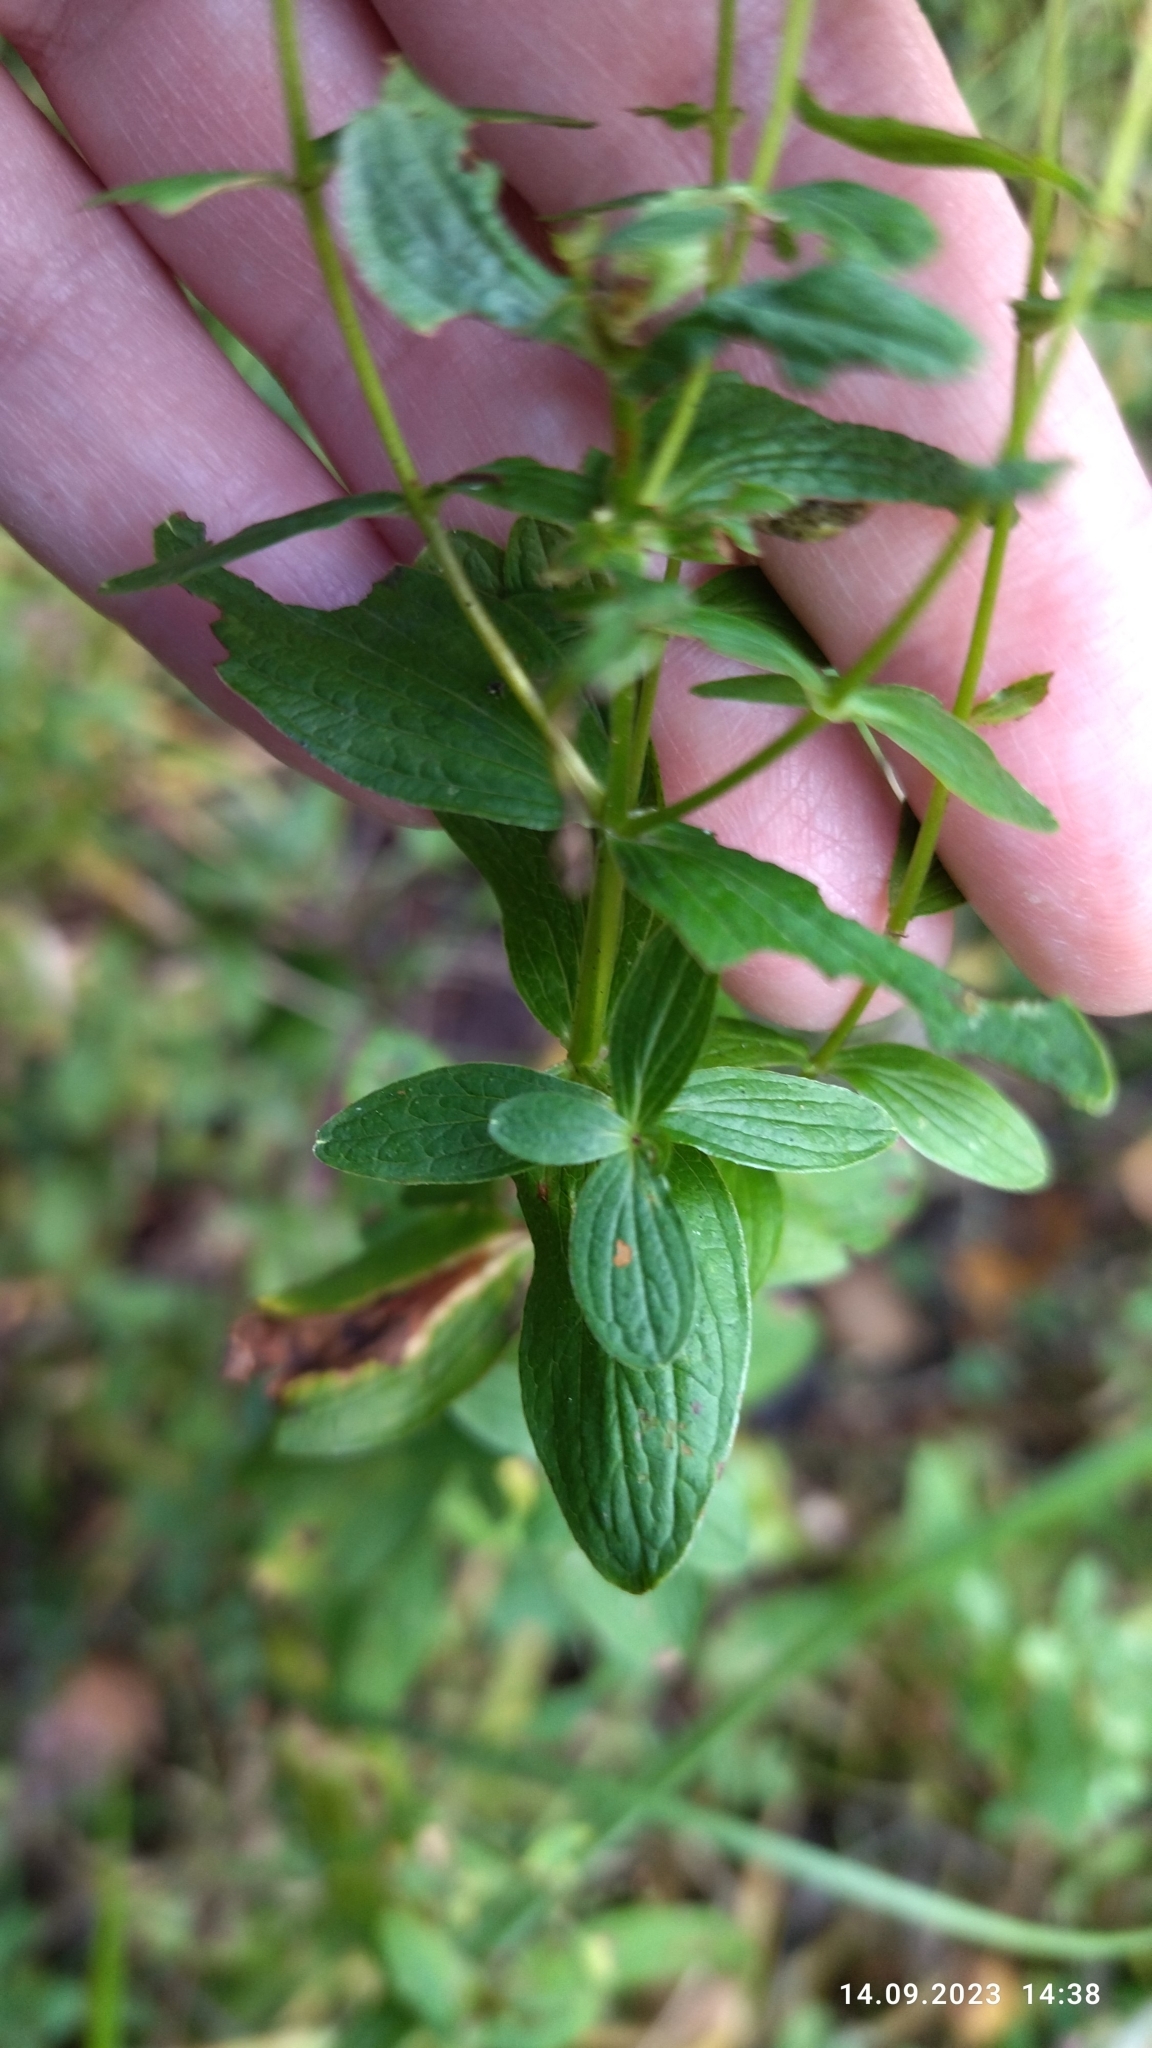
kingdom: Plantae
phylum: Tracheophyta
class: Magnoliopsida
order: Malpighiales
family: Hypericaceae
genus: Hypericum
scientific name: Hypericum maculatum
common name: Imperforate st. john's-wort
